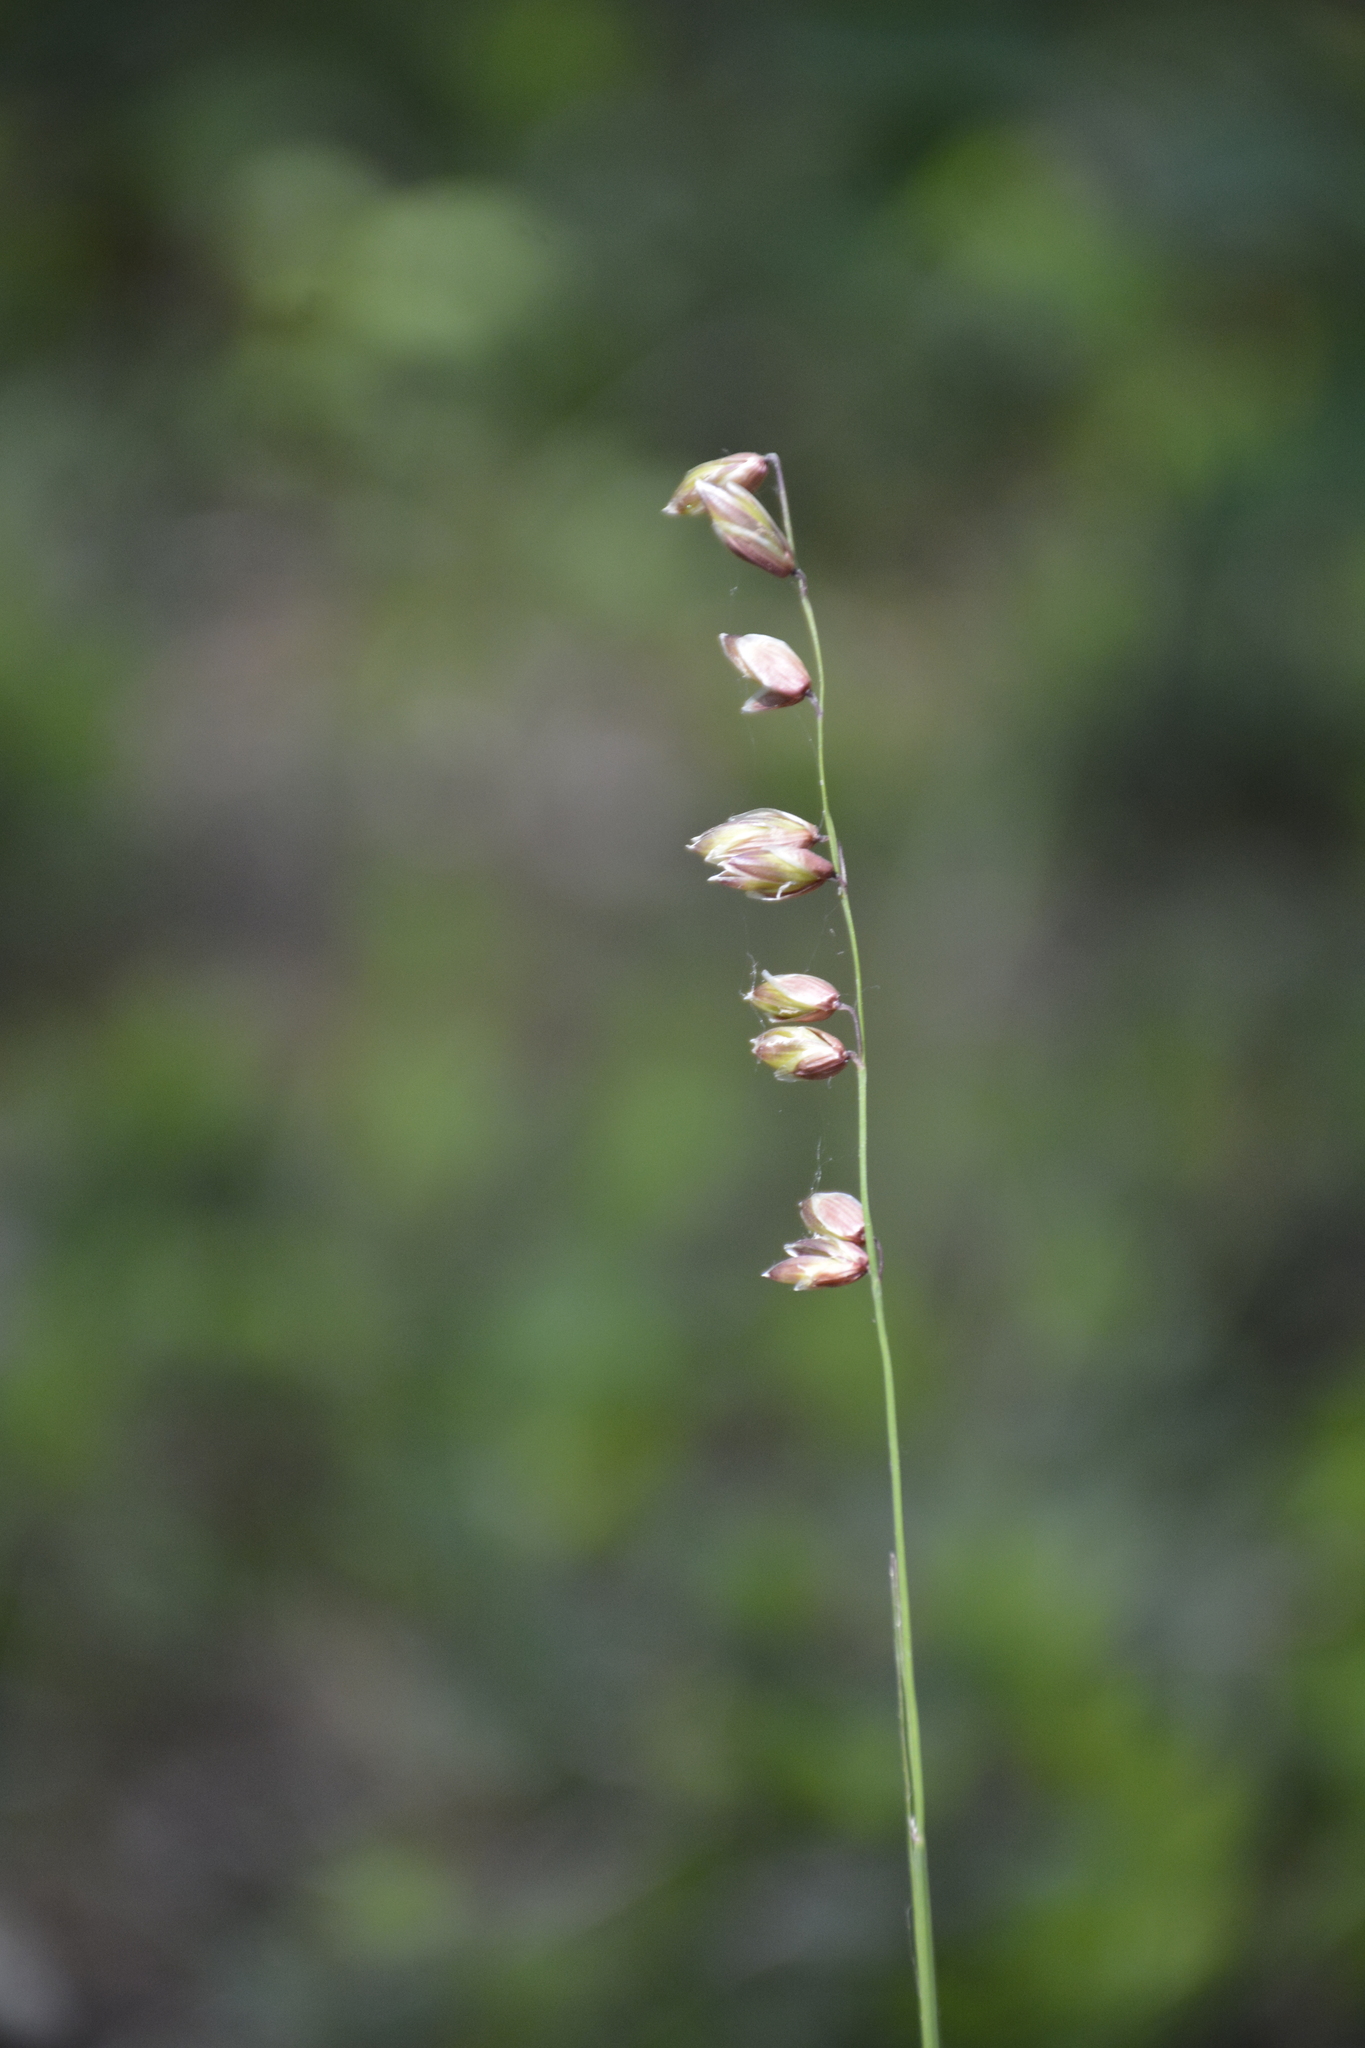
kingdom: Plantae
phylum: Tracheophyta
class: Liliopsida
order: Poales
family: Poaceae
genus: Melica
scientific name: Melica nutans
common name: Mountain melick
